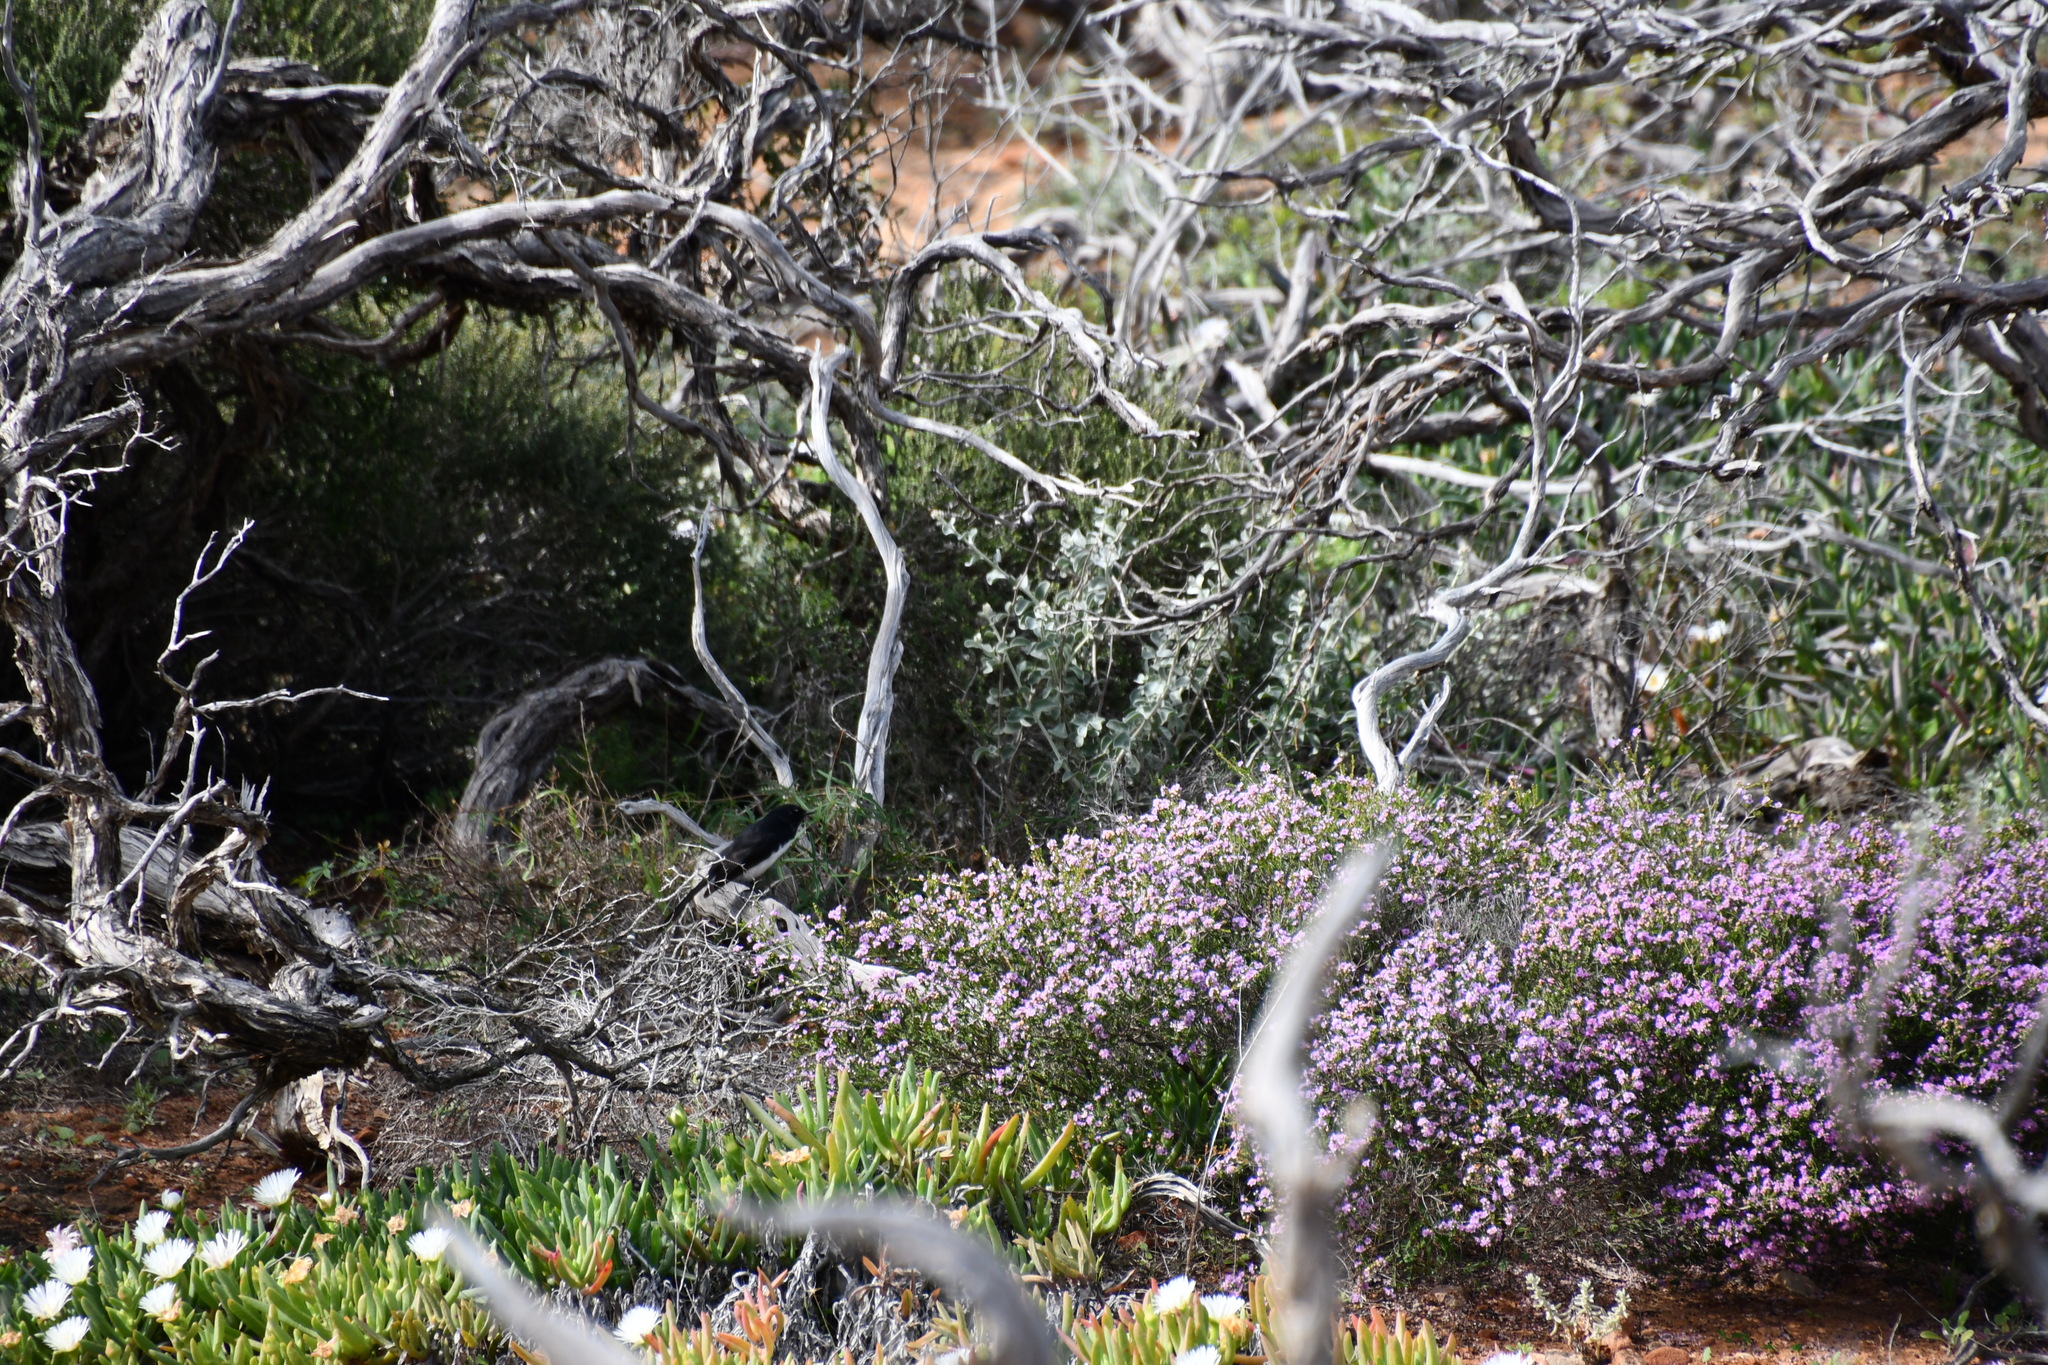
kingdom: Animalia
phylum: Chordata
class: Aves
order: Passeriformes
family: Rhipiduridae
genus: Rhipidura
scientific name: Rhipidura leucophrys
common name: Willie wagtail
